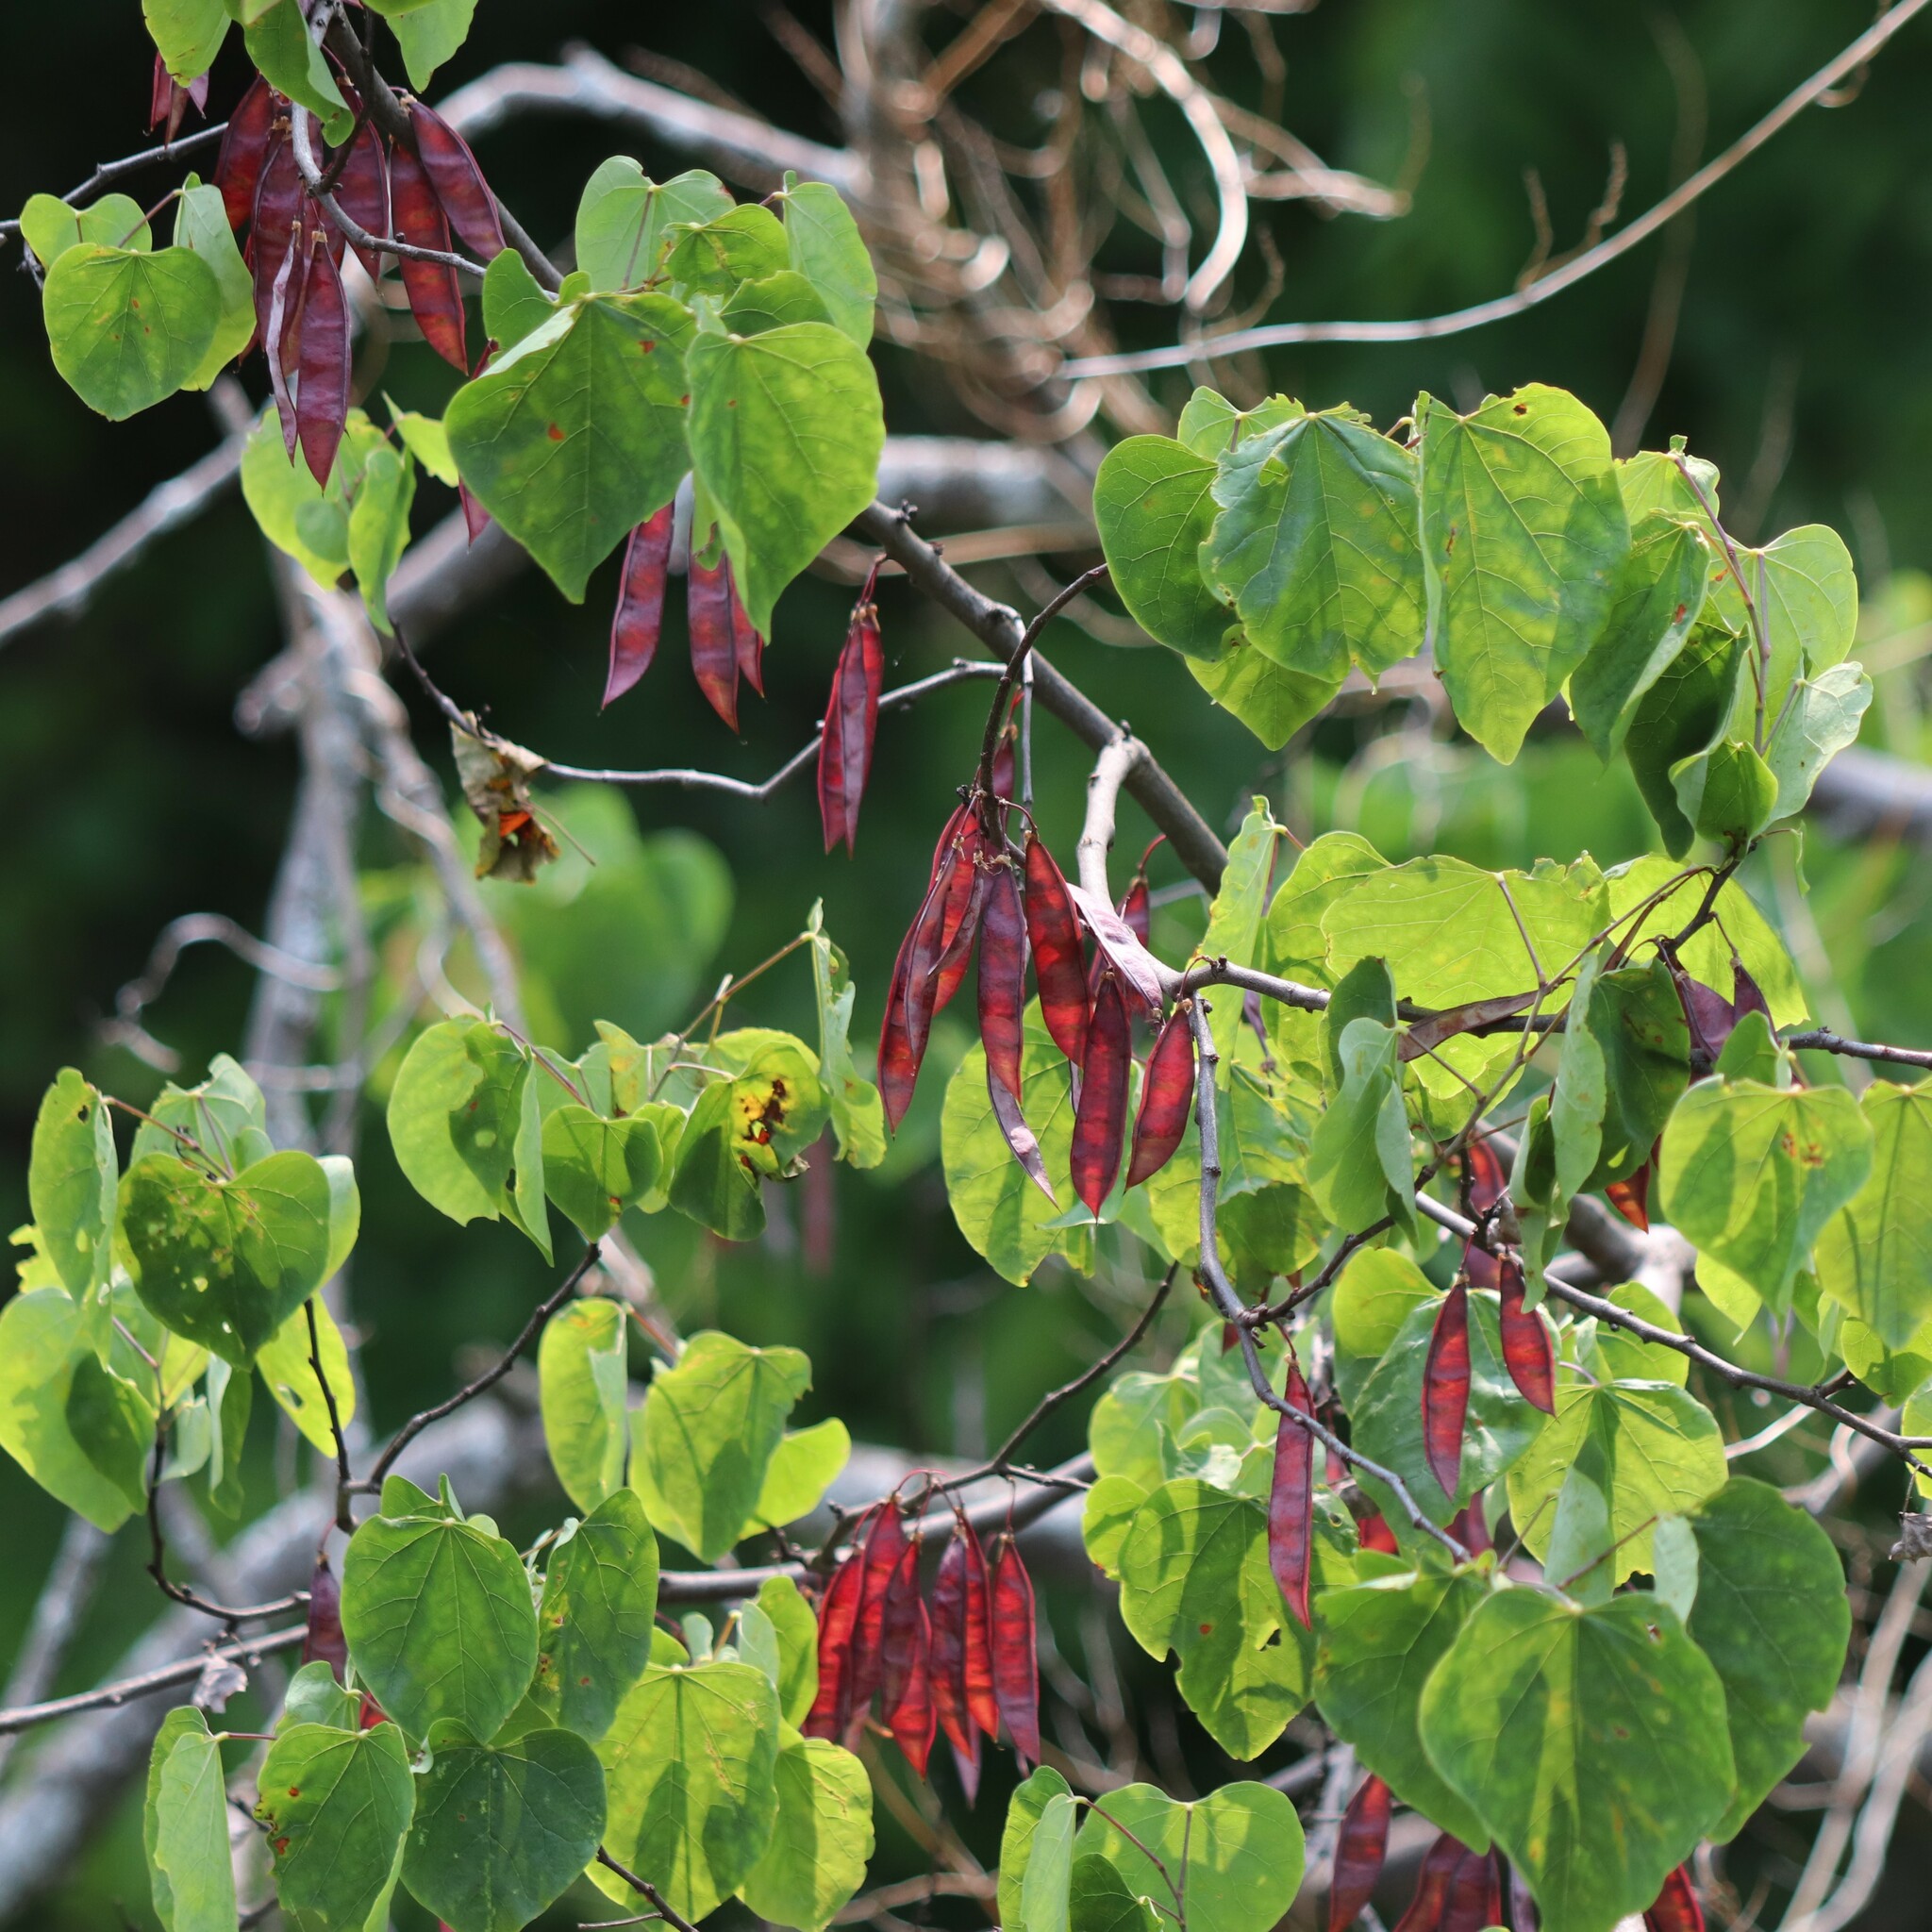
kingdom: Plantae
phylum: Tracheophyta
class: Magnoliopsida
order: Fabales
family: Fabaceae
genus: Cercis
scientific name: Cercis canadensis
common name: Eastern redbud
